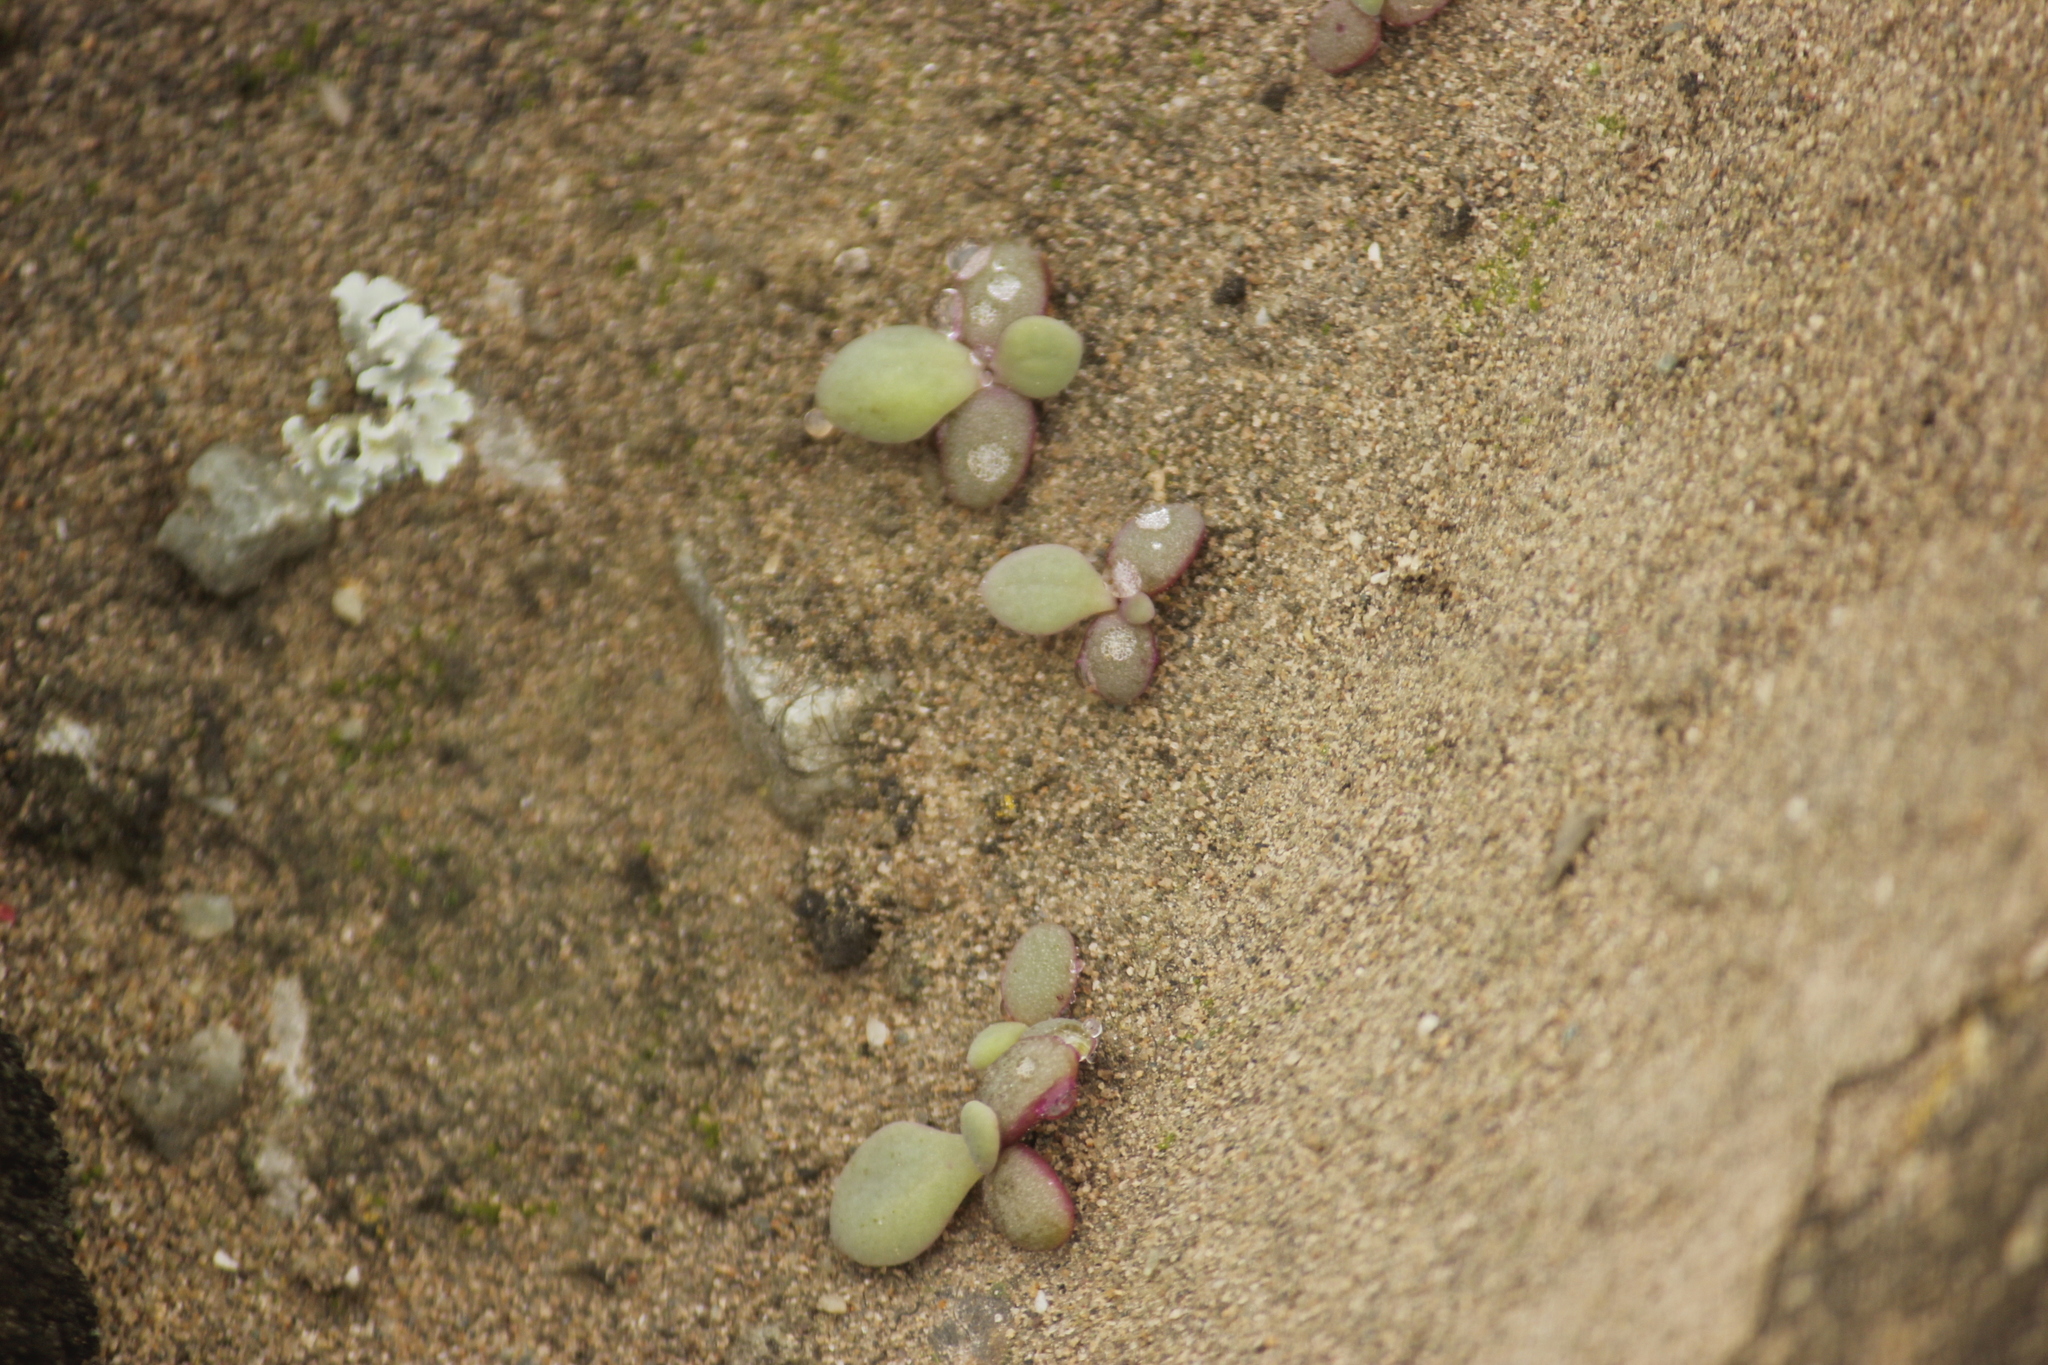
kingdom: Plantae
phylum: Tracheophyta
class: Magnoliopsida
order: Caryophyllales
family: Aizoaceae
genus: Sesuvium
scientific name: Sesuvium portulacastrum
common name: Sea-purslane
